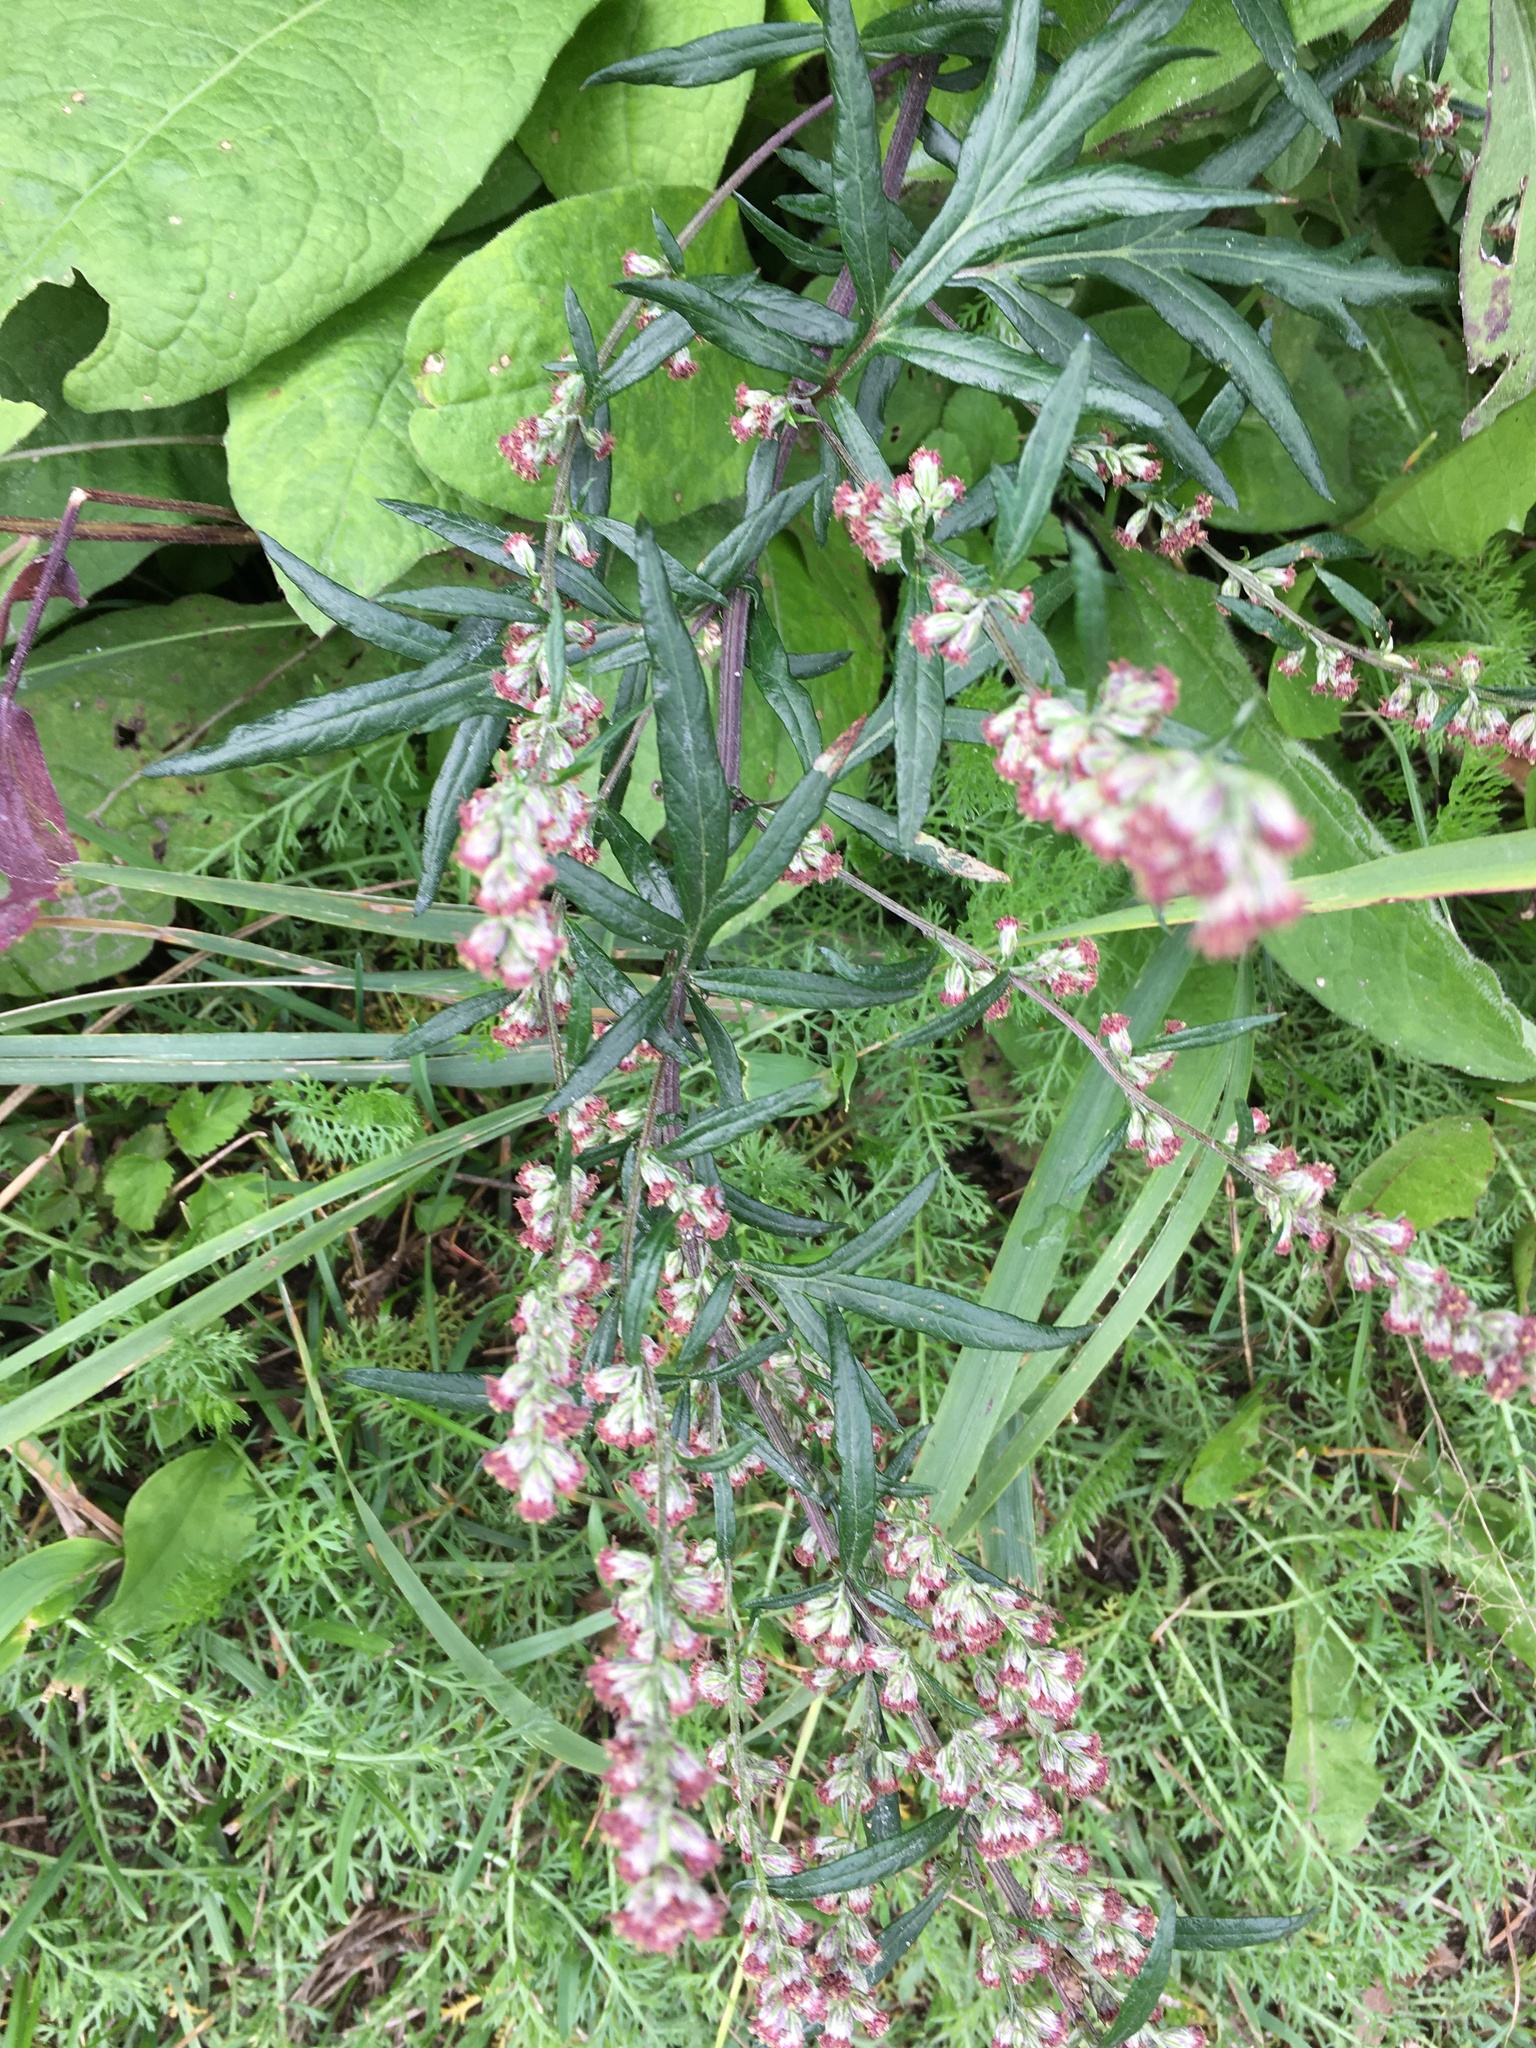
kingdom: Plantae
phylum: Tracheophyta
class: Magnoliopsida
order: Asterales
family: Asteraceae
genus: Artemisia
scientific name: Artemisia vulgaris
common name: Mugwort
